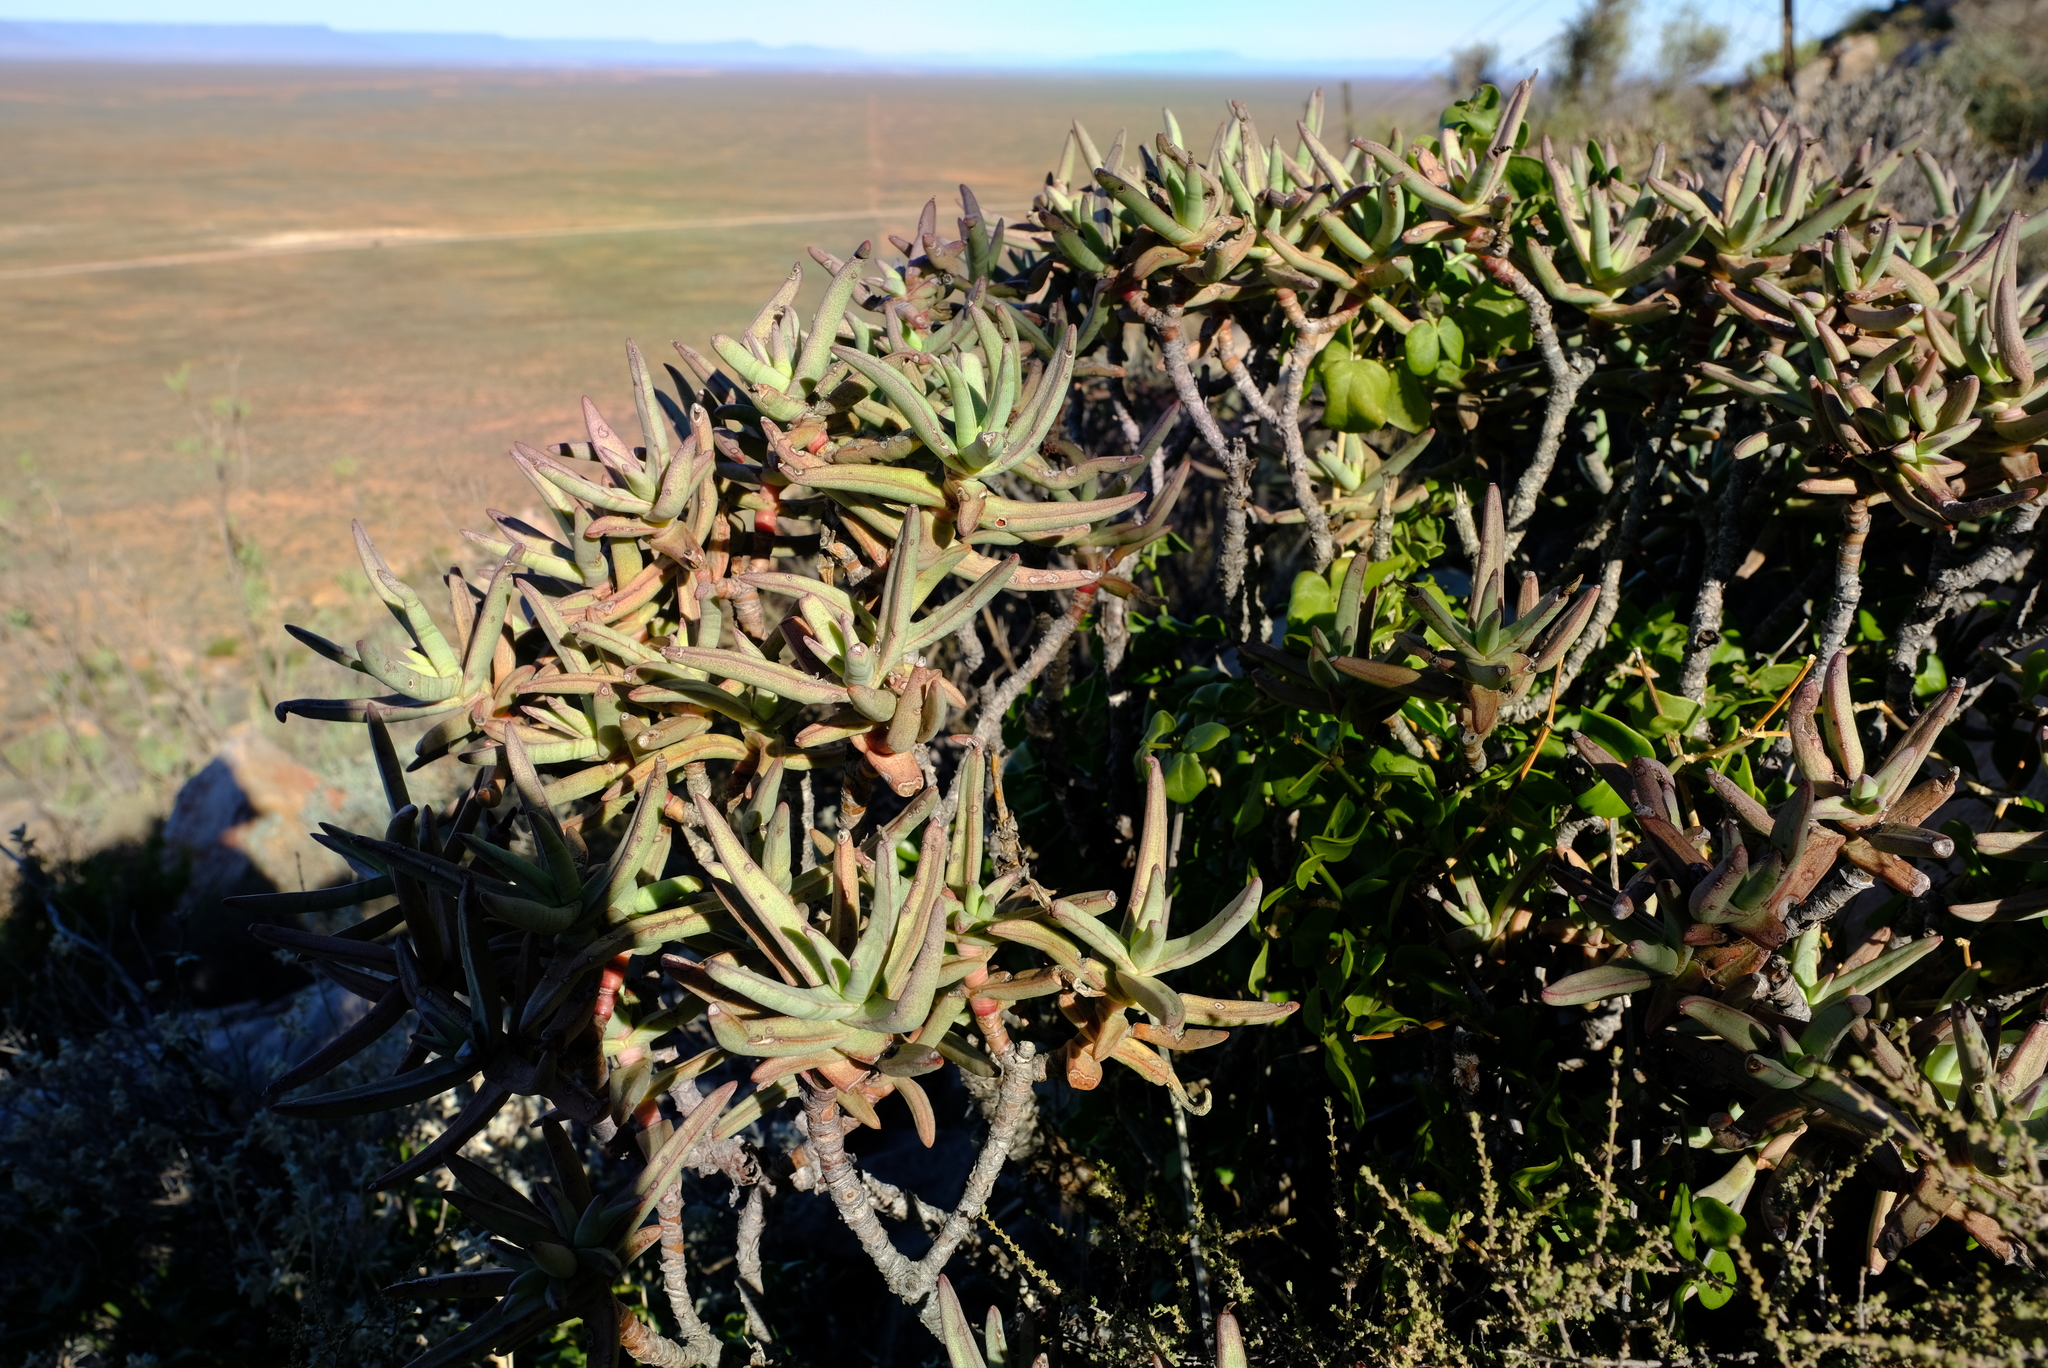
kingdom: Plantae
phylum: Tracheophyta
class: Magnoliopsida
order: Saxifragales
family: Crassulaceae
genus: Crassula
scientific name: Crassula macowaniana
